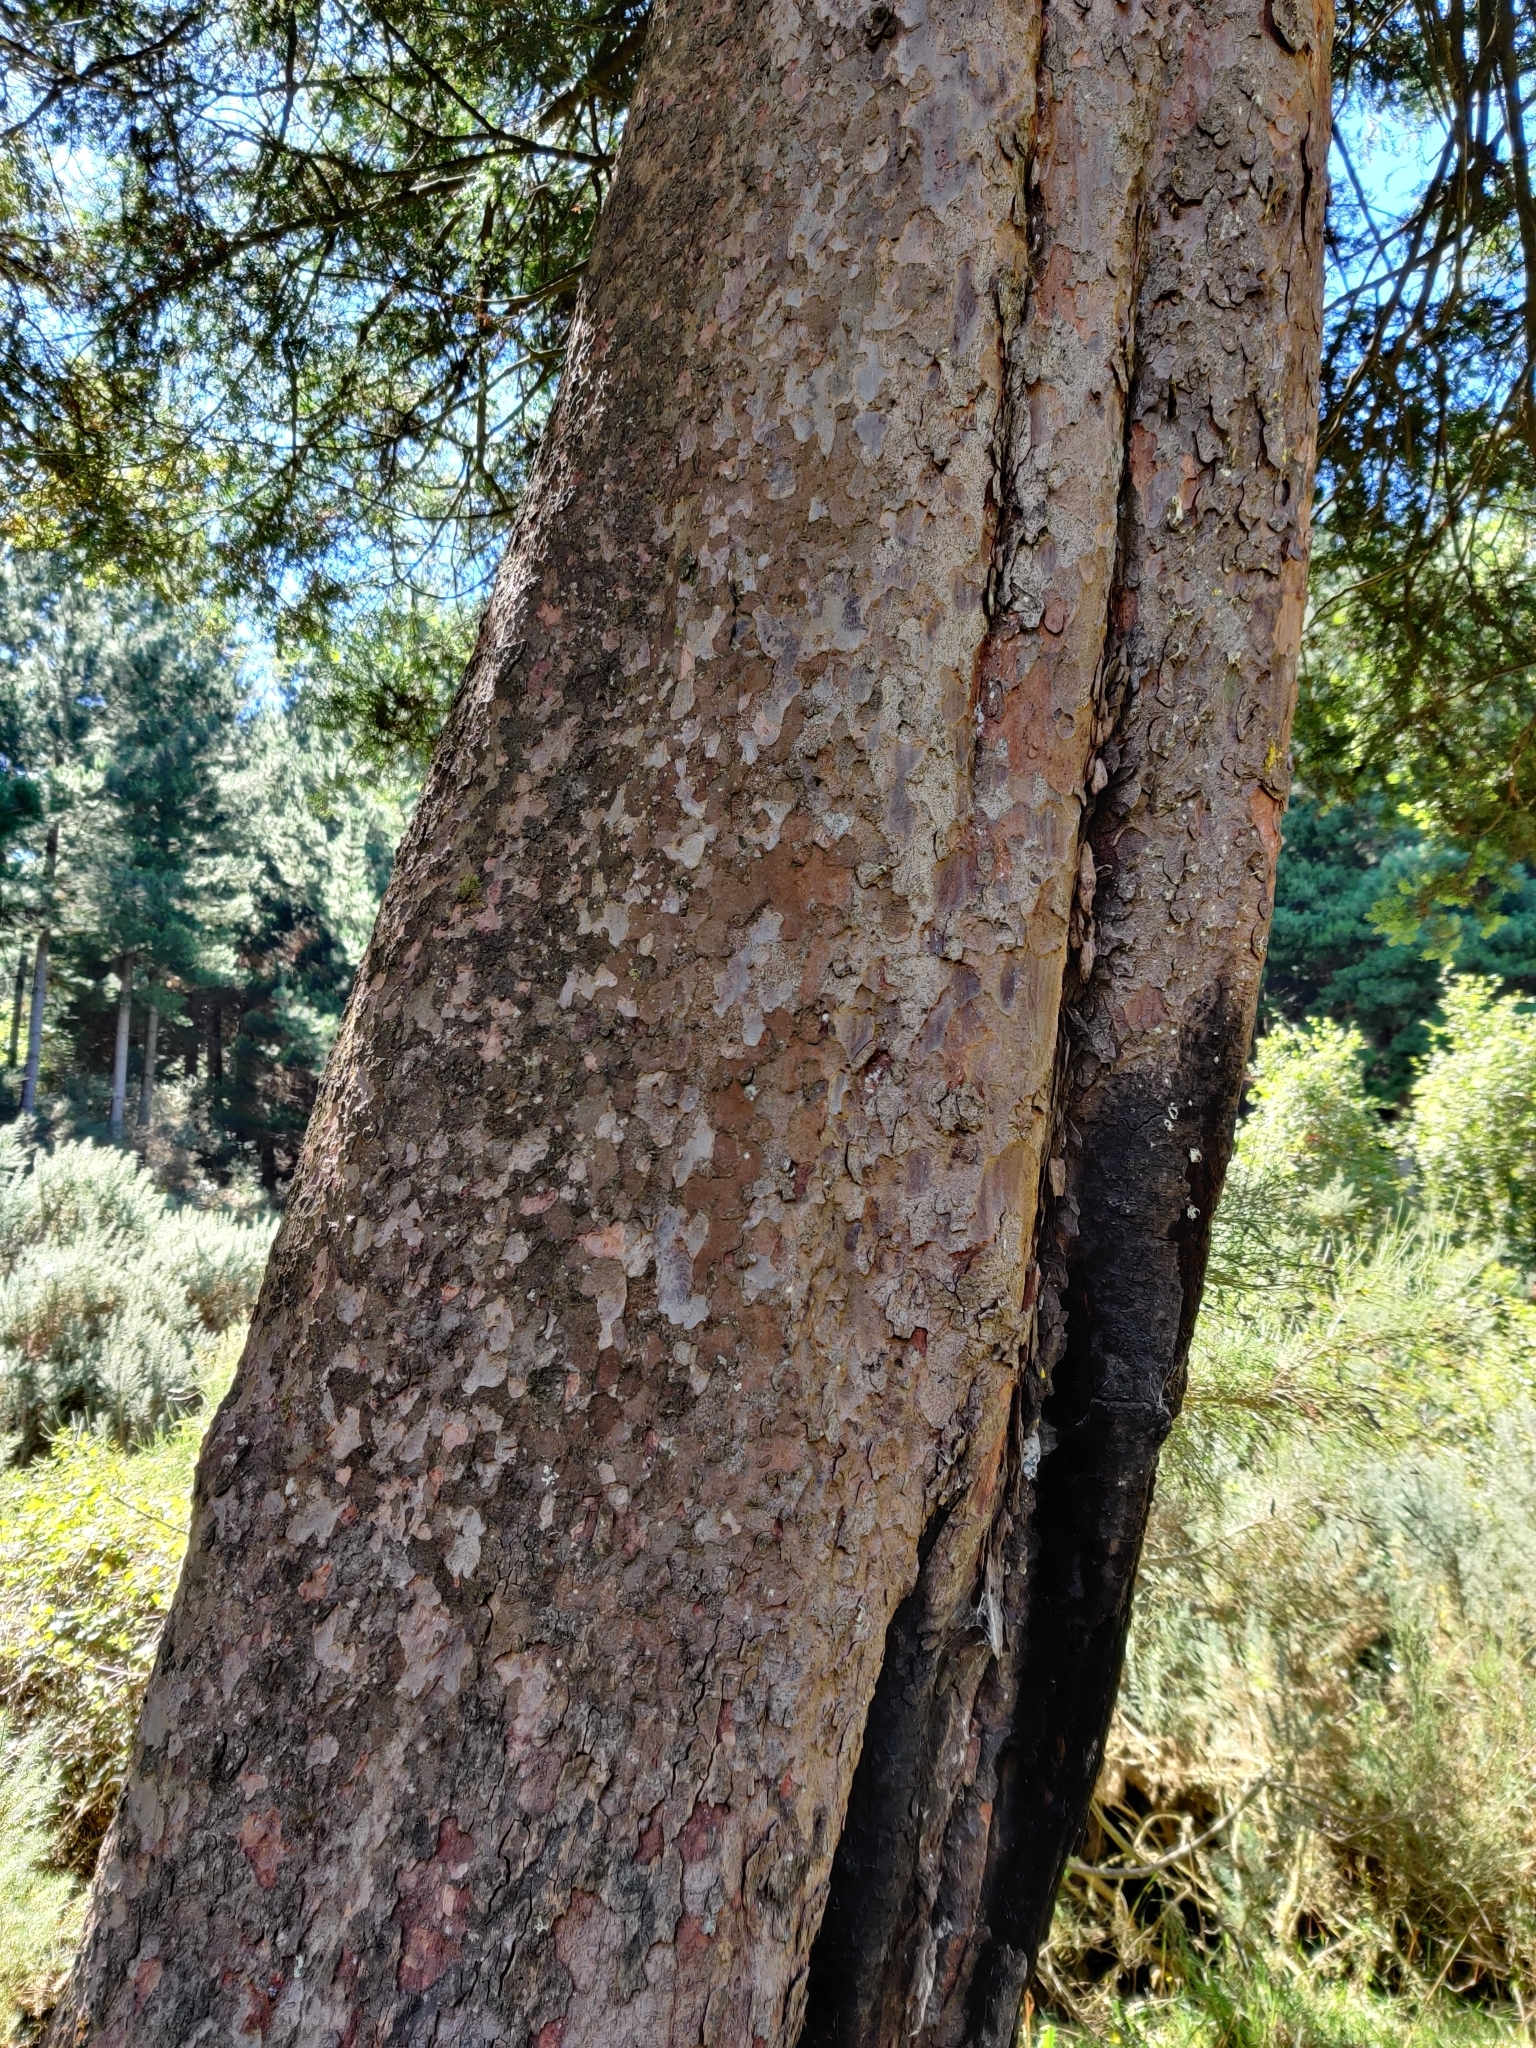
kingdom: Plantae
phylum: Tracheophyta
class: Pinopsida
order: Pinales
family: Podocarpaceae
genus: Prumnopitys
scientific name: Prumnopitys taxifolia
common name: Matai
